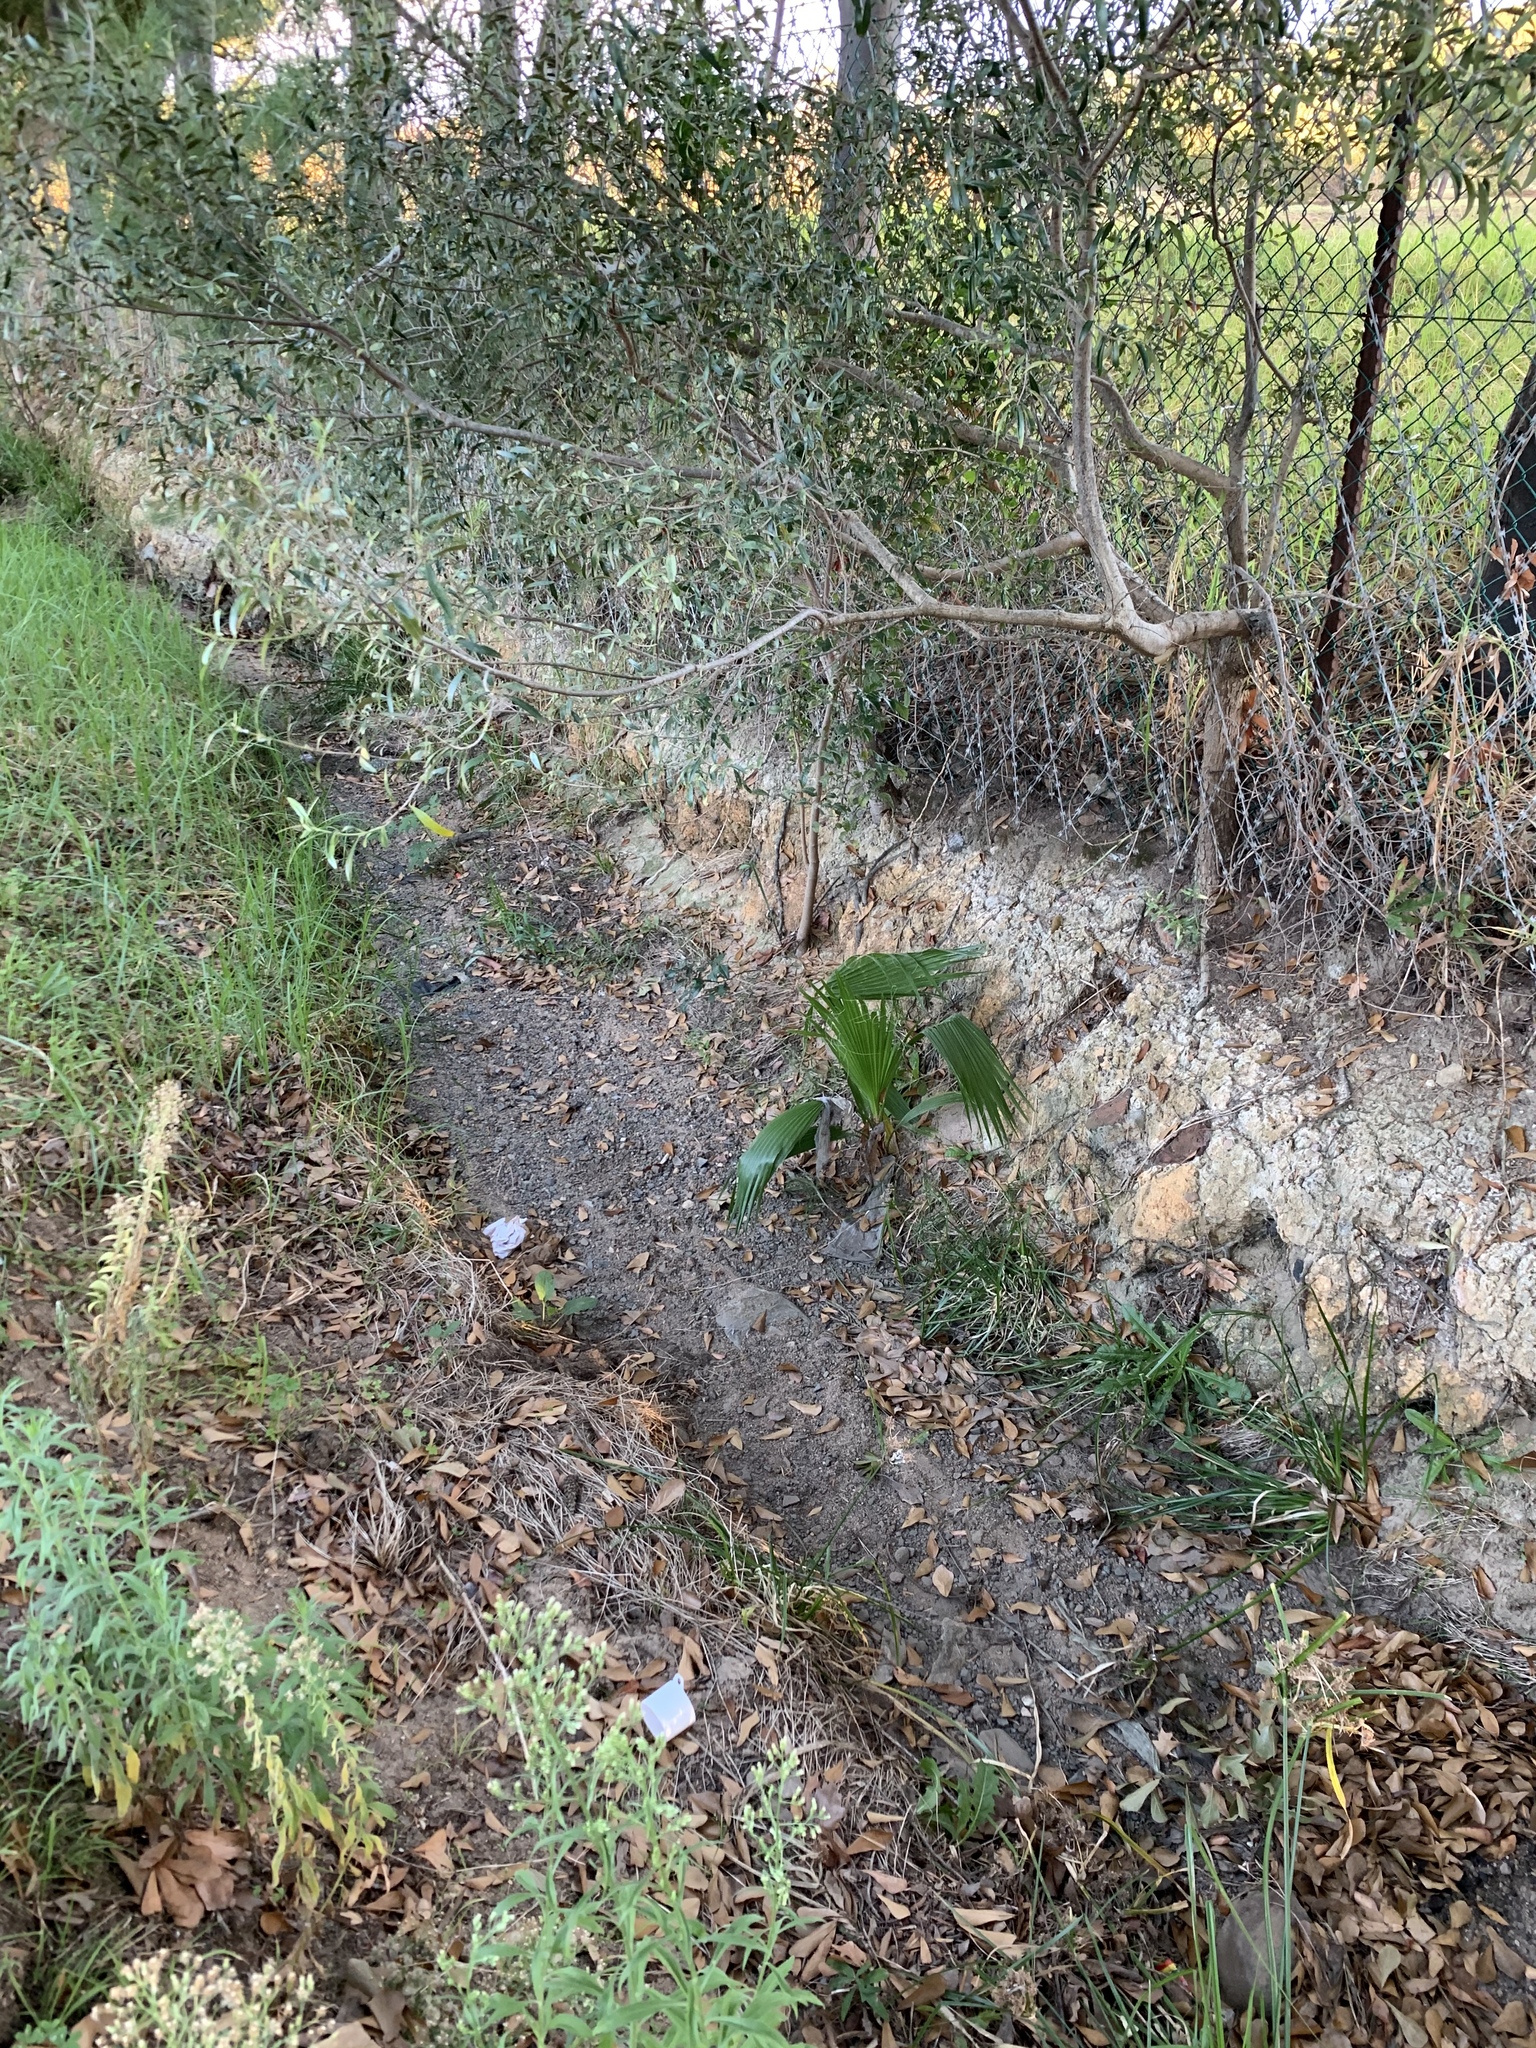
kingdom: Plantae
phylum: Tracheophyta
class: Liliopsida
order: Arecales
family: Arecaceae
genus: Washingtonia
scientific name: Washingtonia robusta
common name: Mexican fan palm
